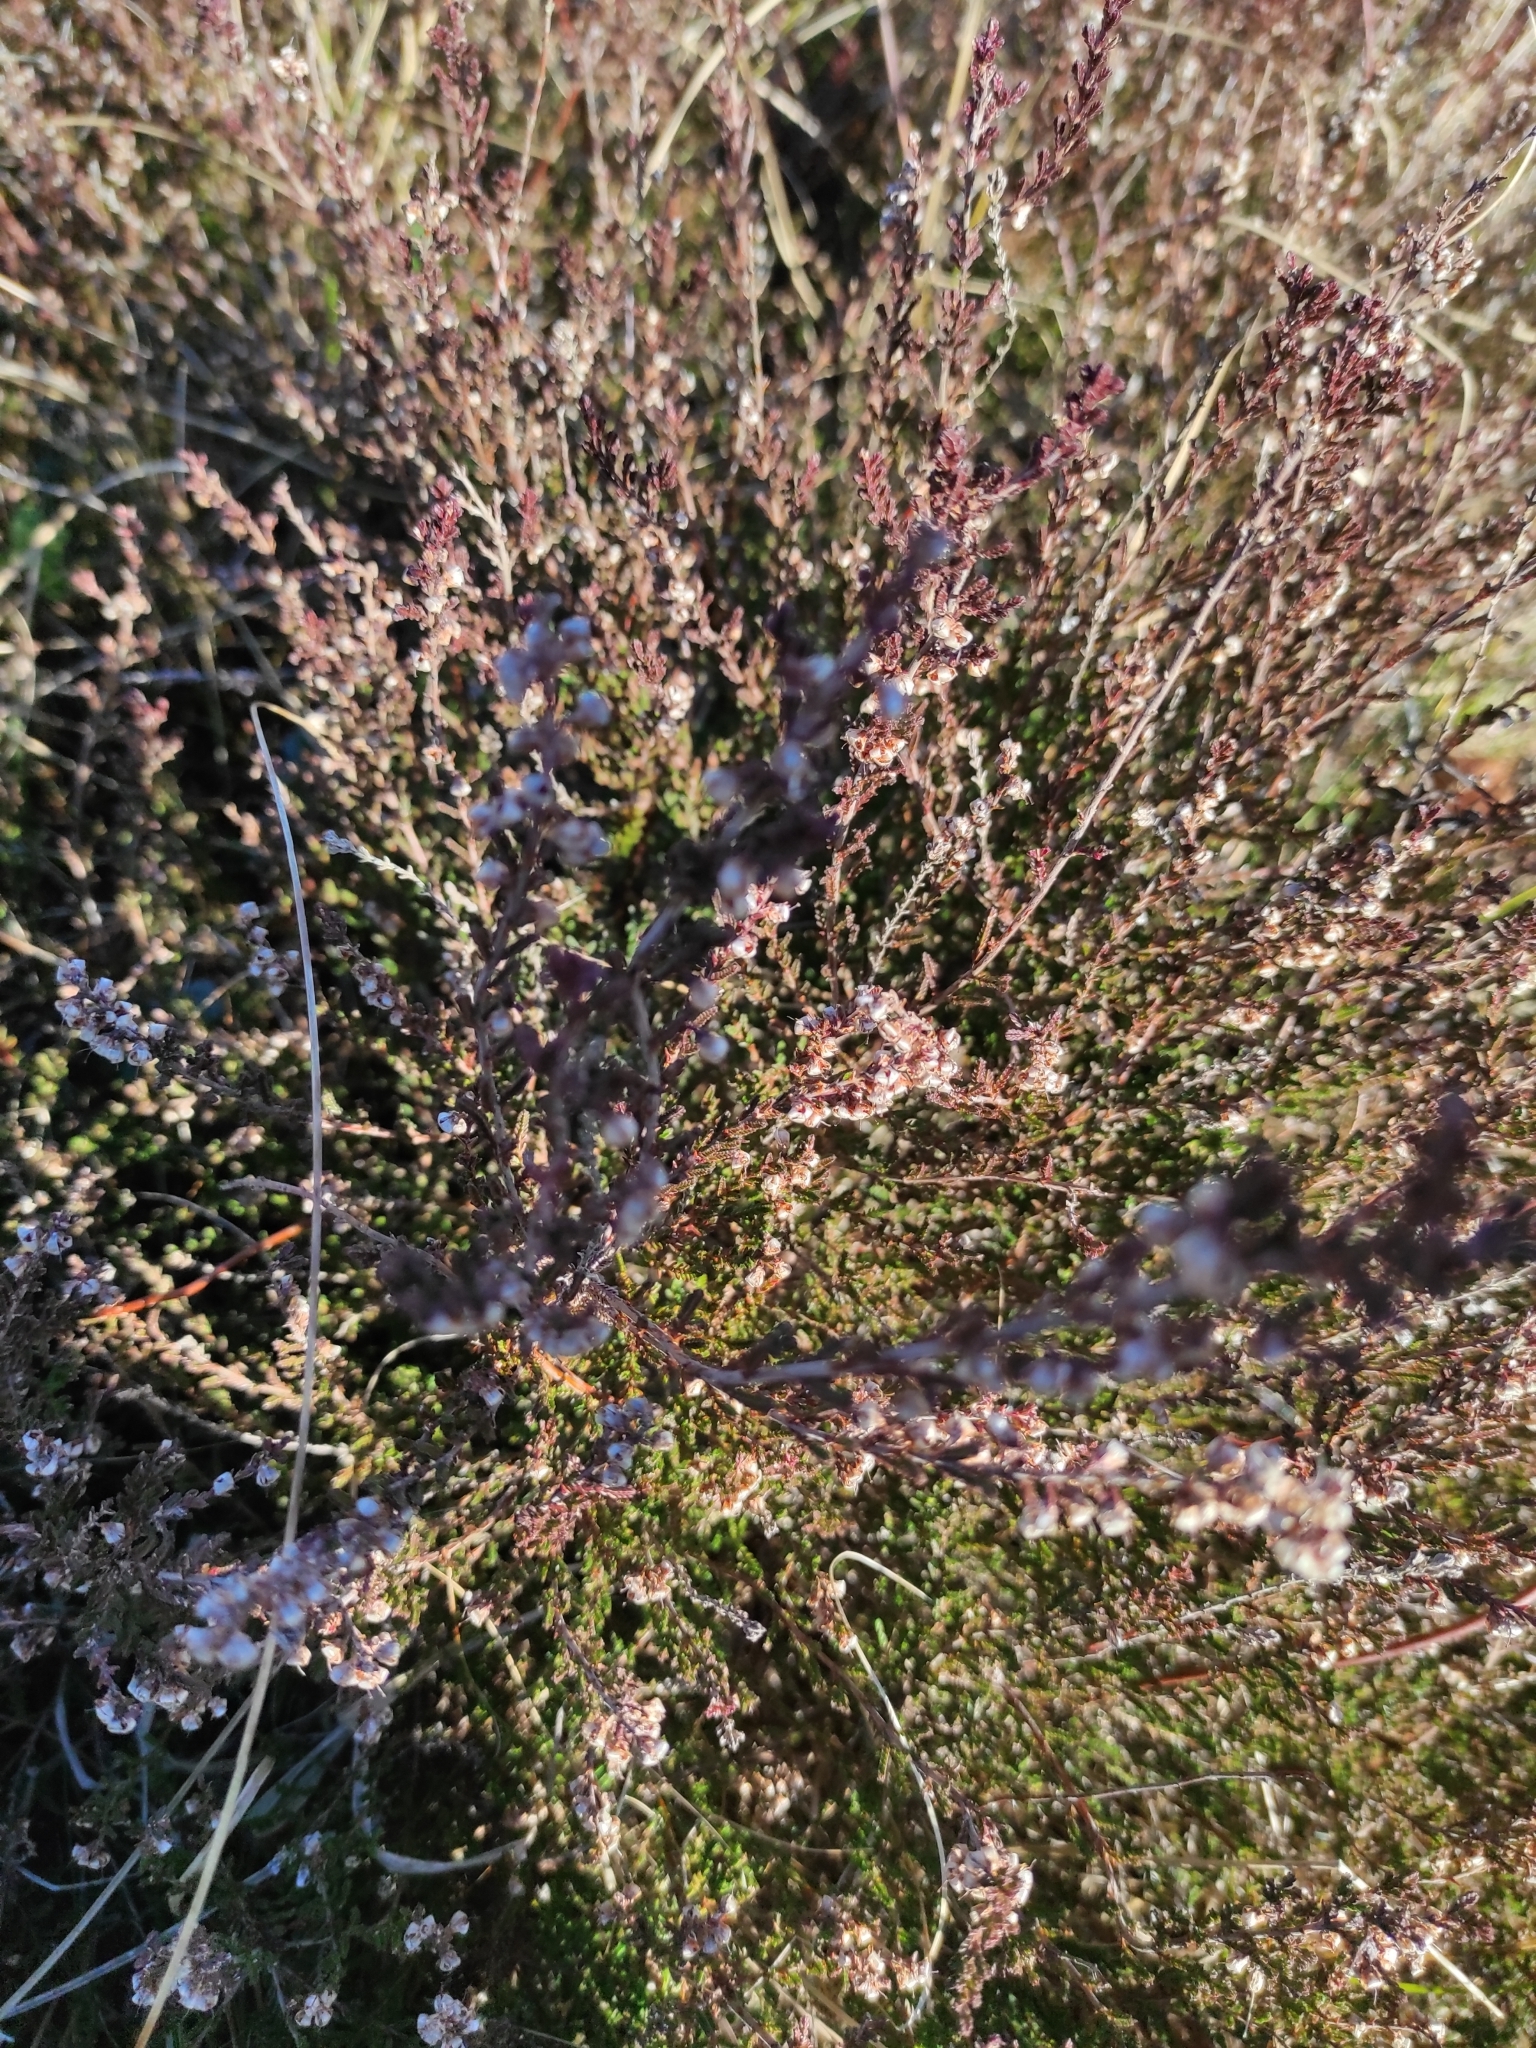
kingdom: Plantae
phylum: Tracheophyta
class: Magnoliopsida
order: Ericales
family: Ericaceae
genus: Calluna
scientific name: Calluna vulgaris
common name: Heather
